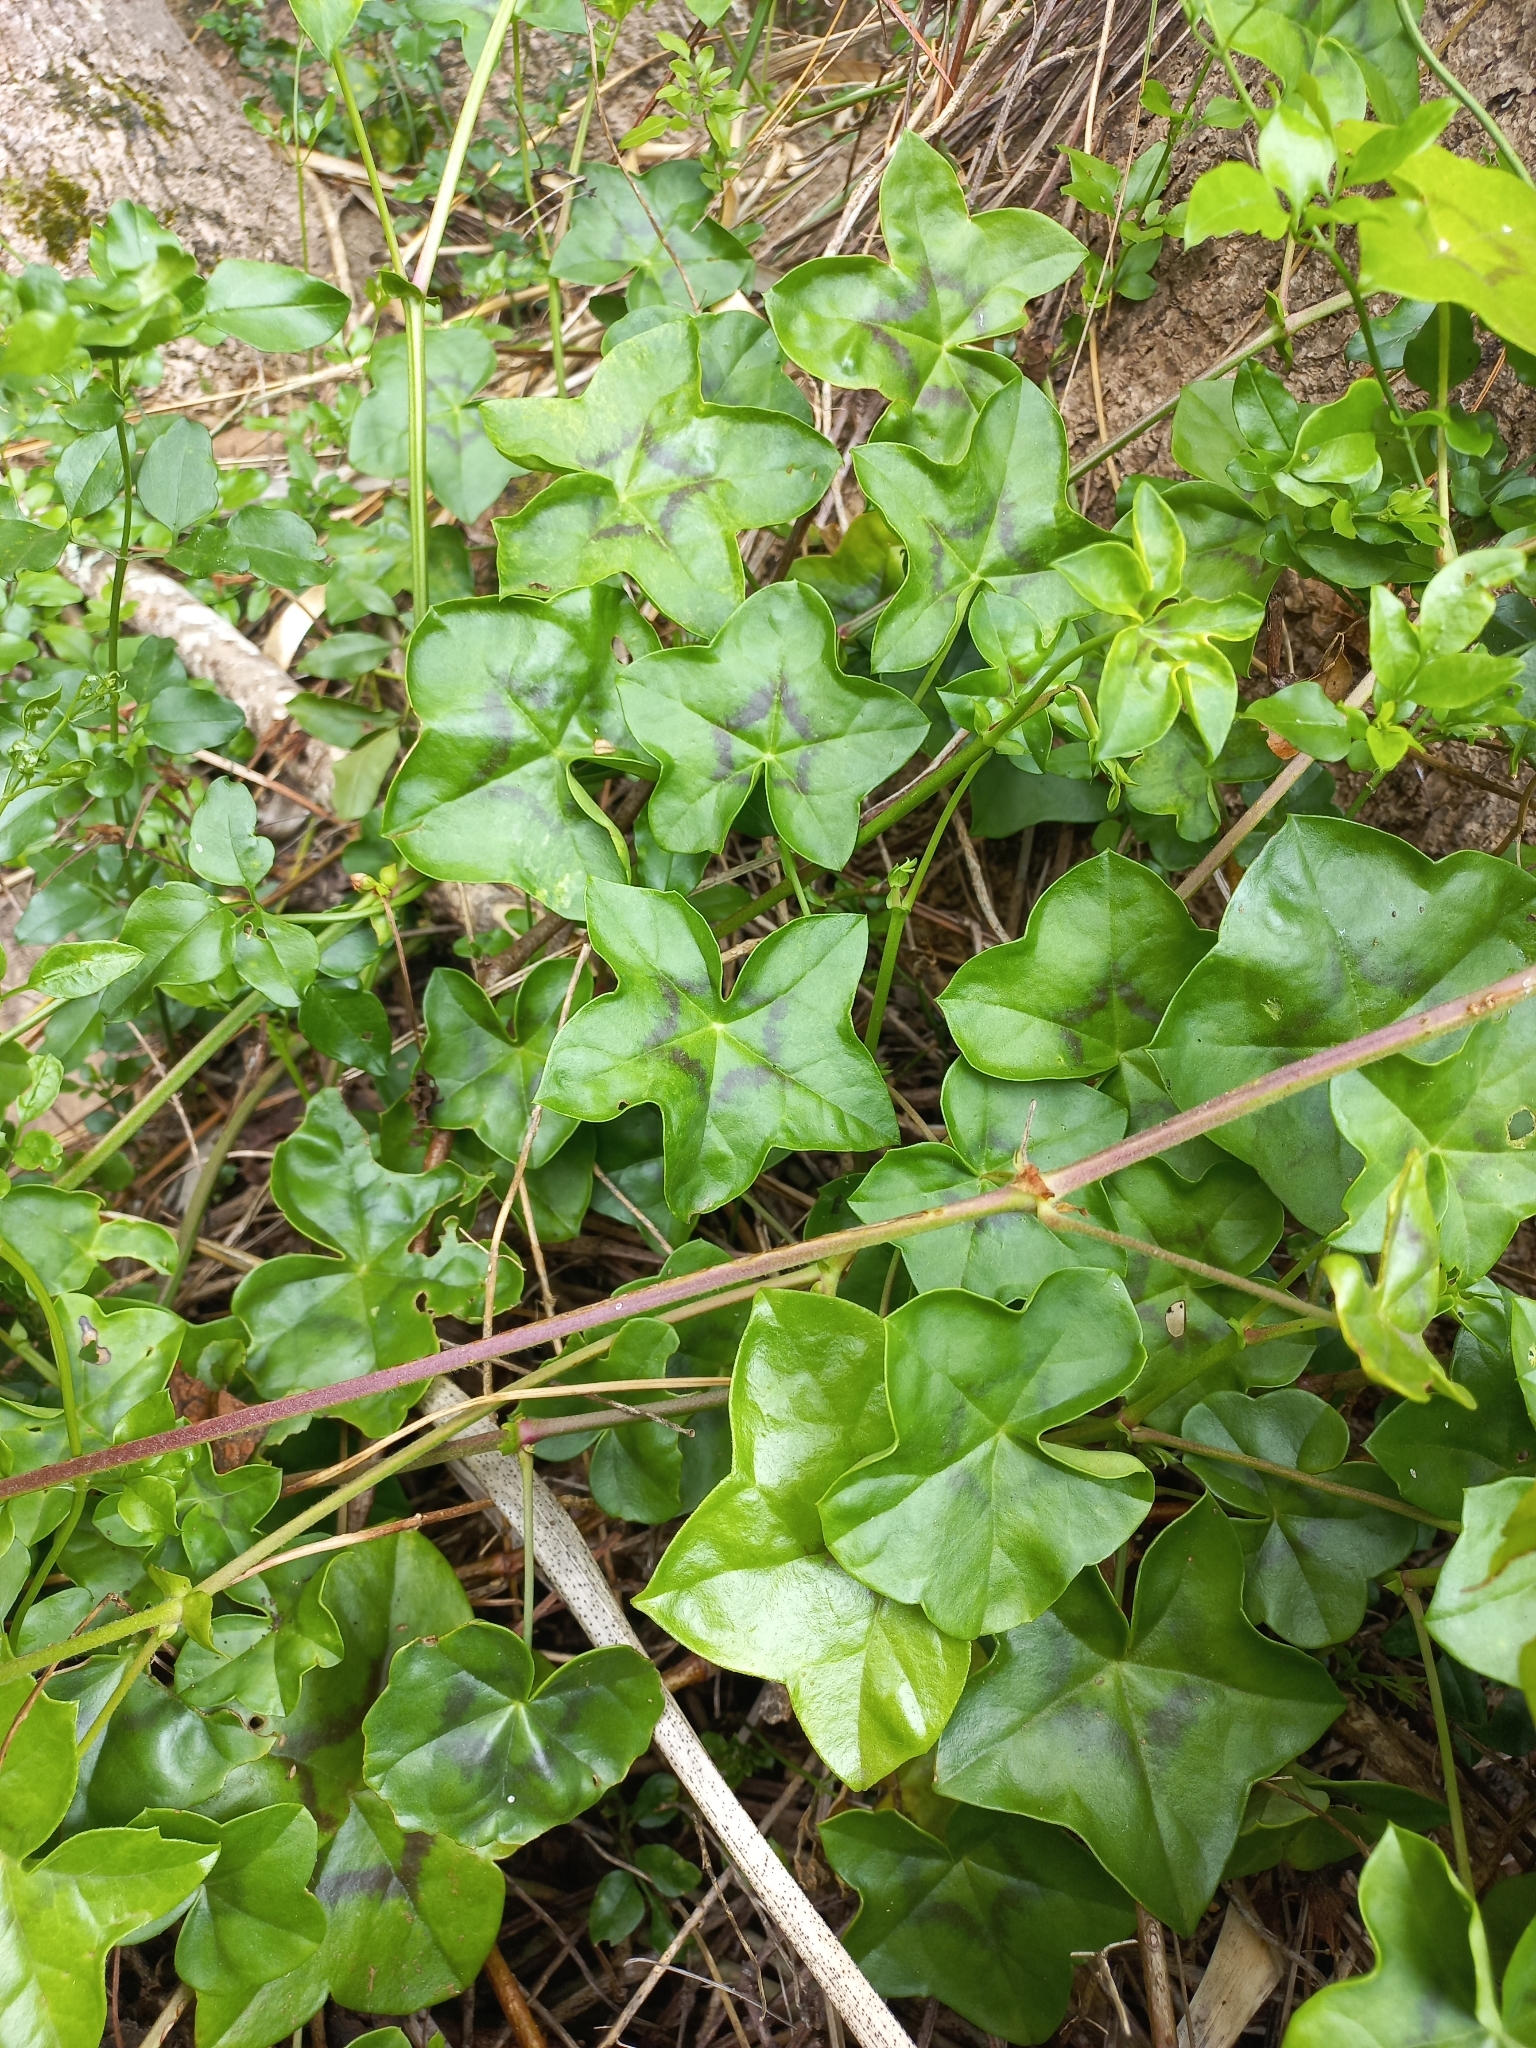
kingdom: Plantae
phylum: Tracheophyta
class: Magnoliopsida
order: Geraniales
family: Geraniaceae
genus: Pelargonium
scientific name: Pelargonium peltatum
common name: Ivyleaf geranium
